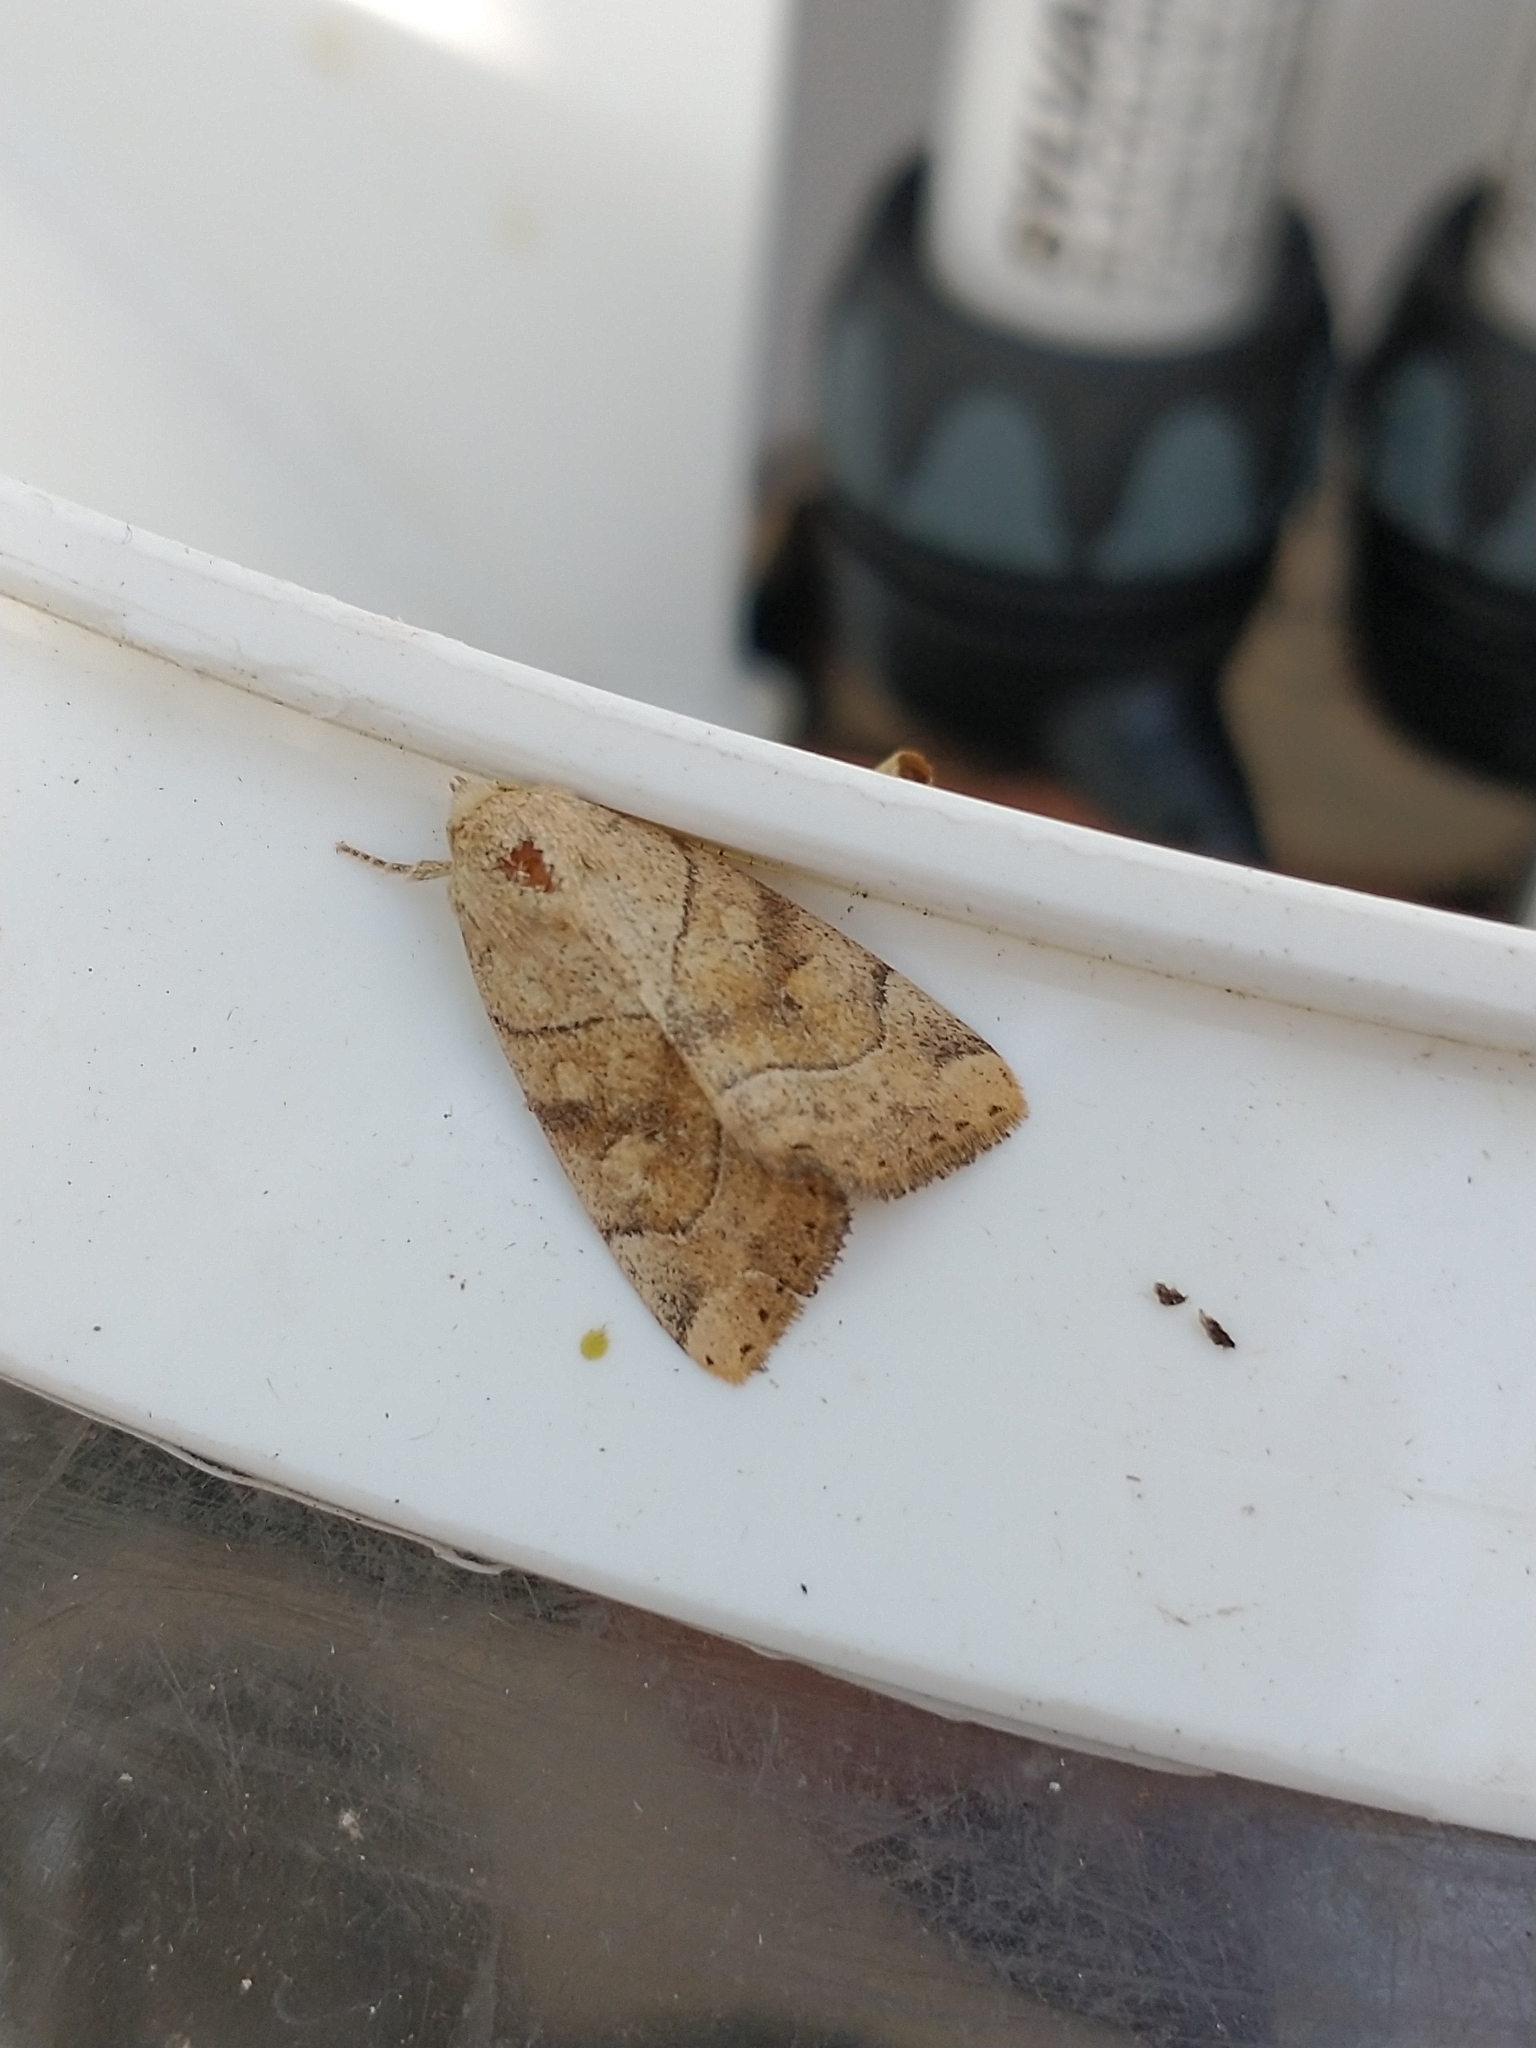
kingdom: Animalia
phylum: Arthropoda
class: Insecta
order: Lepidoptera
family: Noctuidae
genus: Cosmia
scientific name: Cosmia trapezina
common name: Dun-bar
